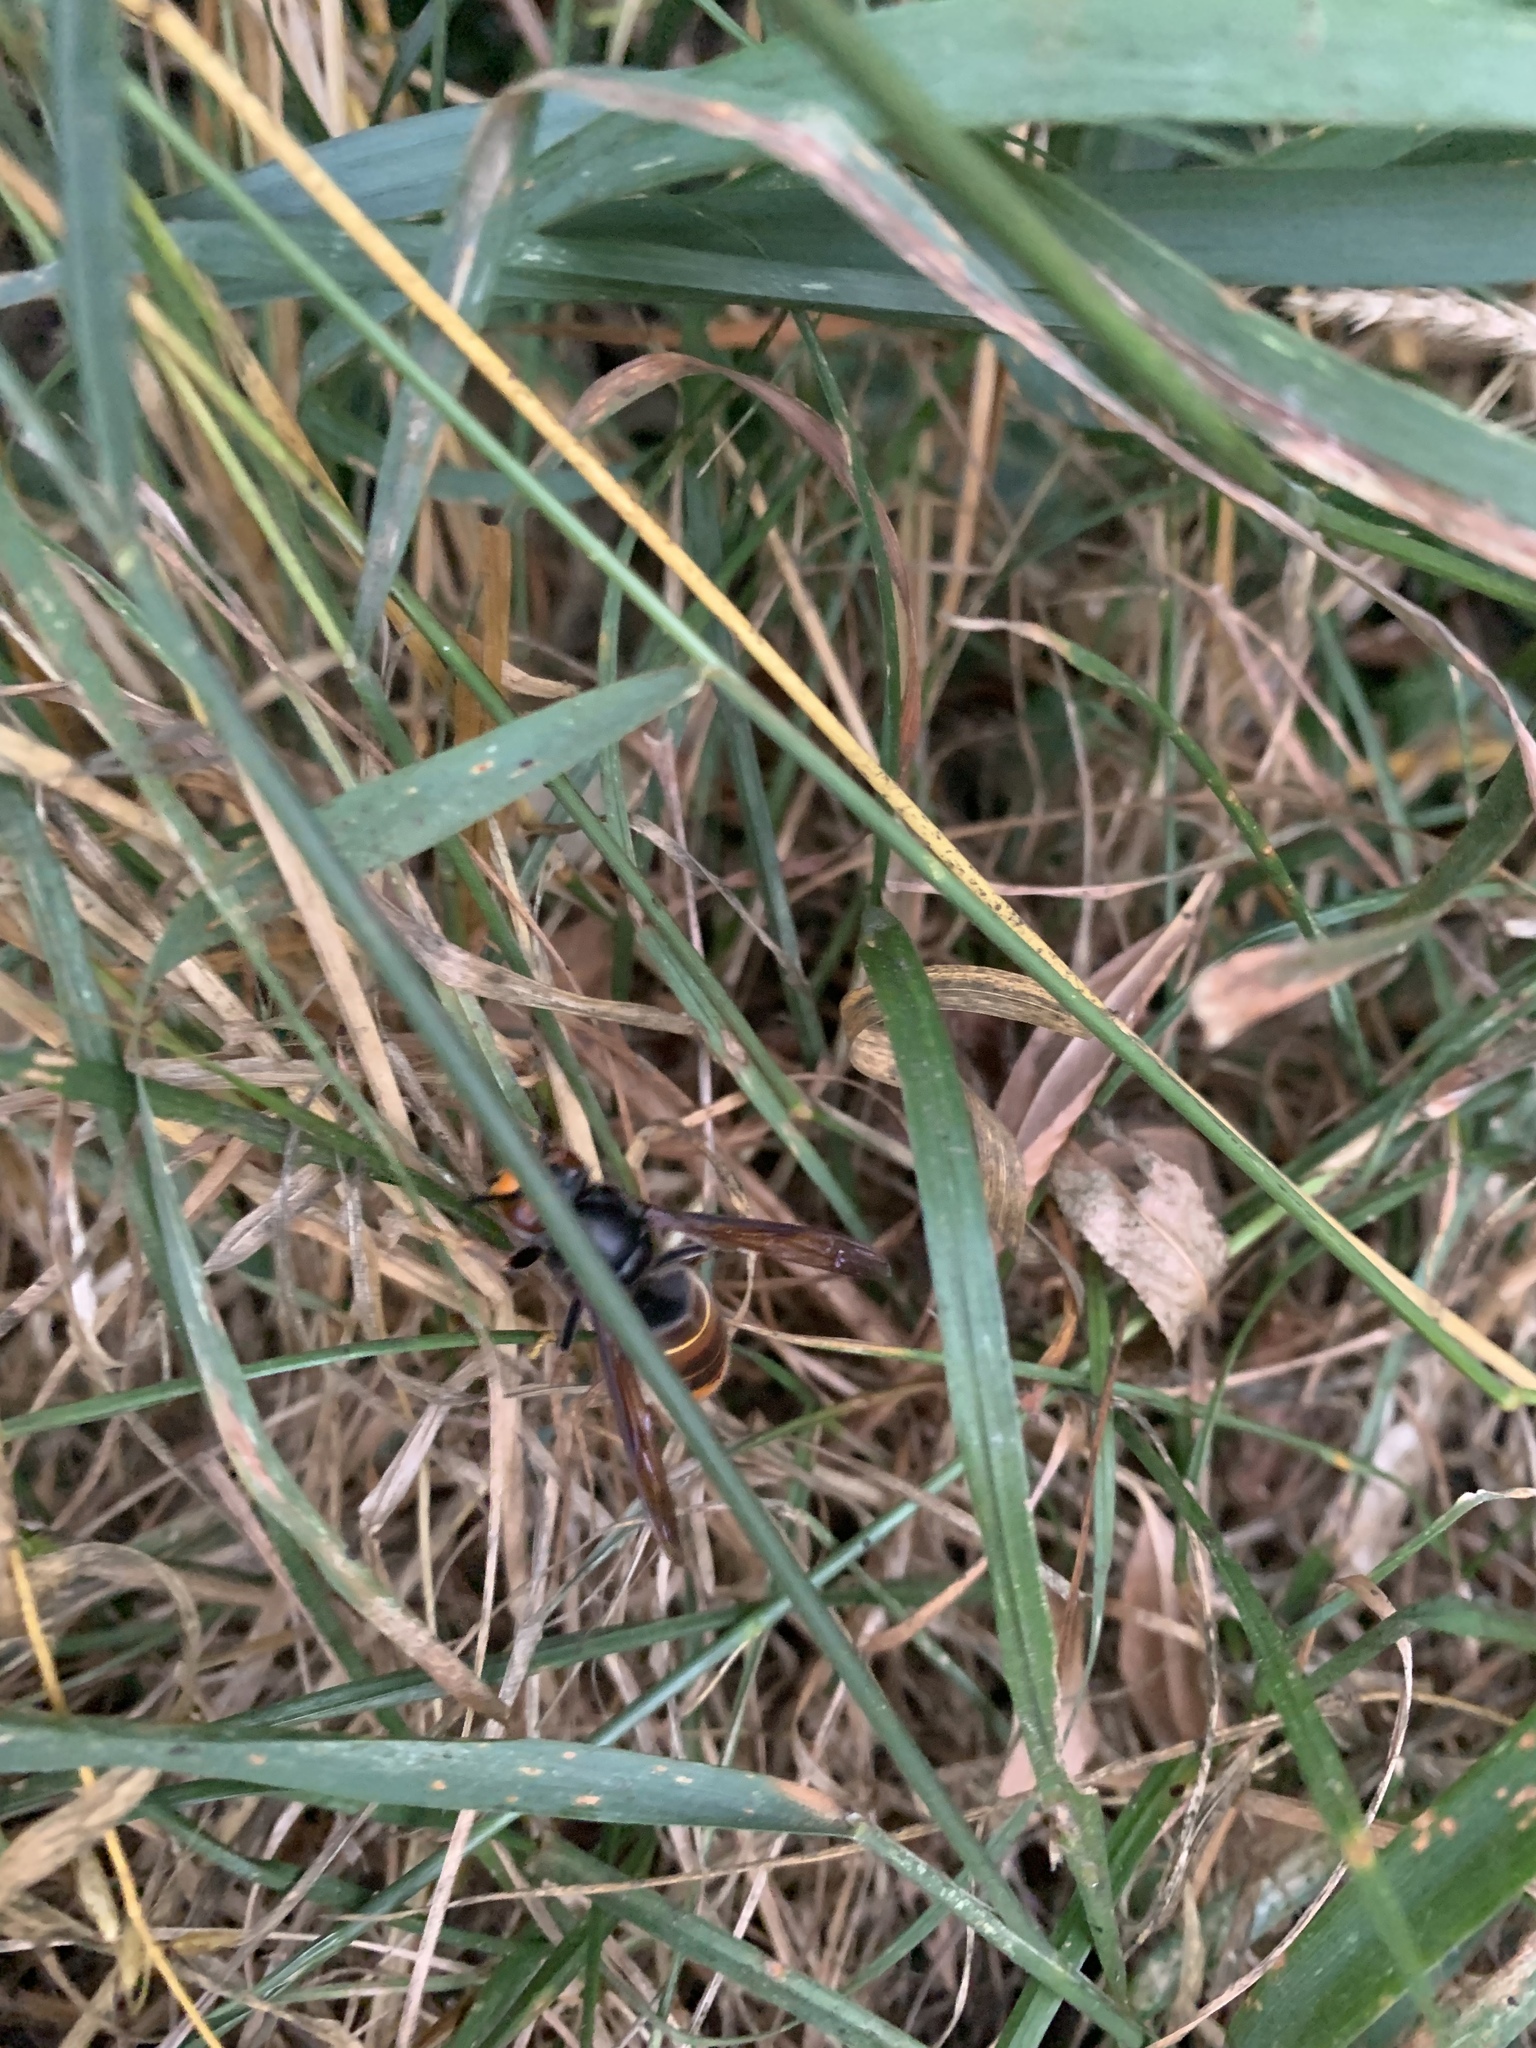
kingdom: Animalia
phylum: Arthropoda
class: Insecta
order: Hymenoptera
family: Vespidae
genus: Vespa
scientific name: Vespa velutina
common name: Asian hornet
